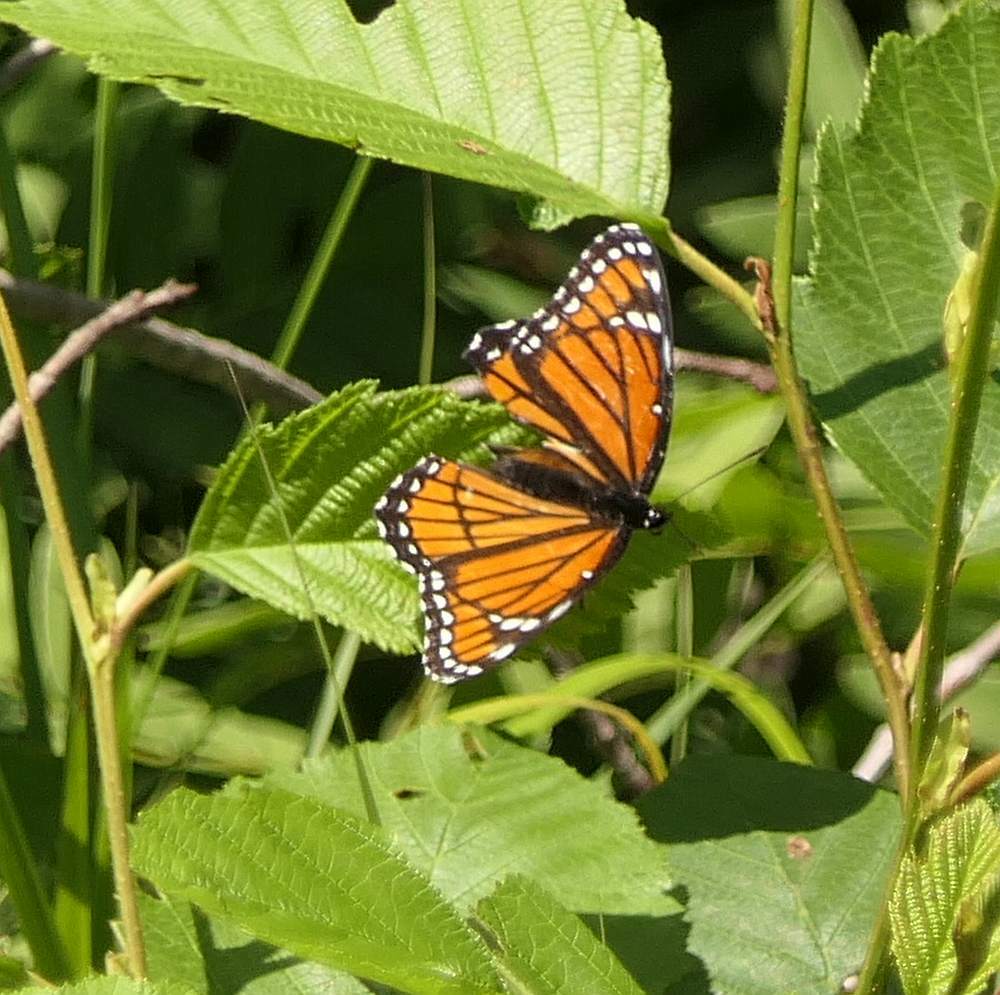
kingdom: Animalia
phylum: Arthropoda
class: Insecta
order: Lepidoptera
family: Nymphalidae
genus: Limenitis
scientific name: Limenitis archippus
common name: Viceroy
